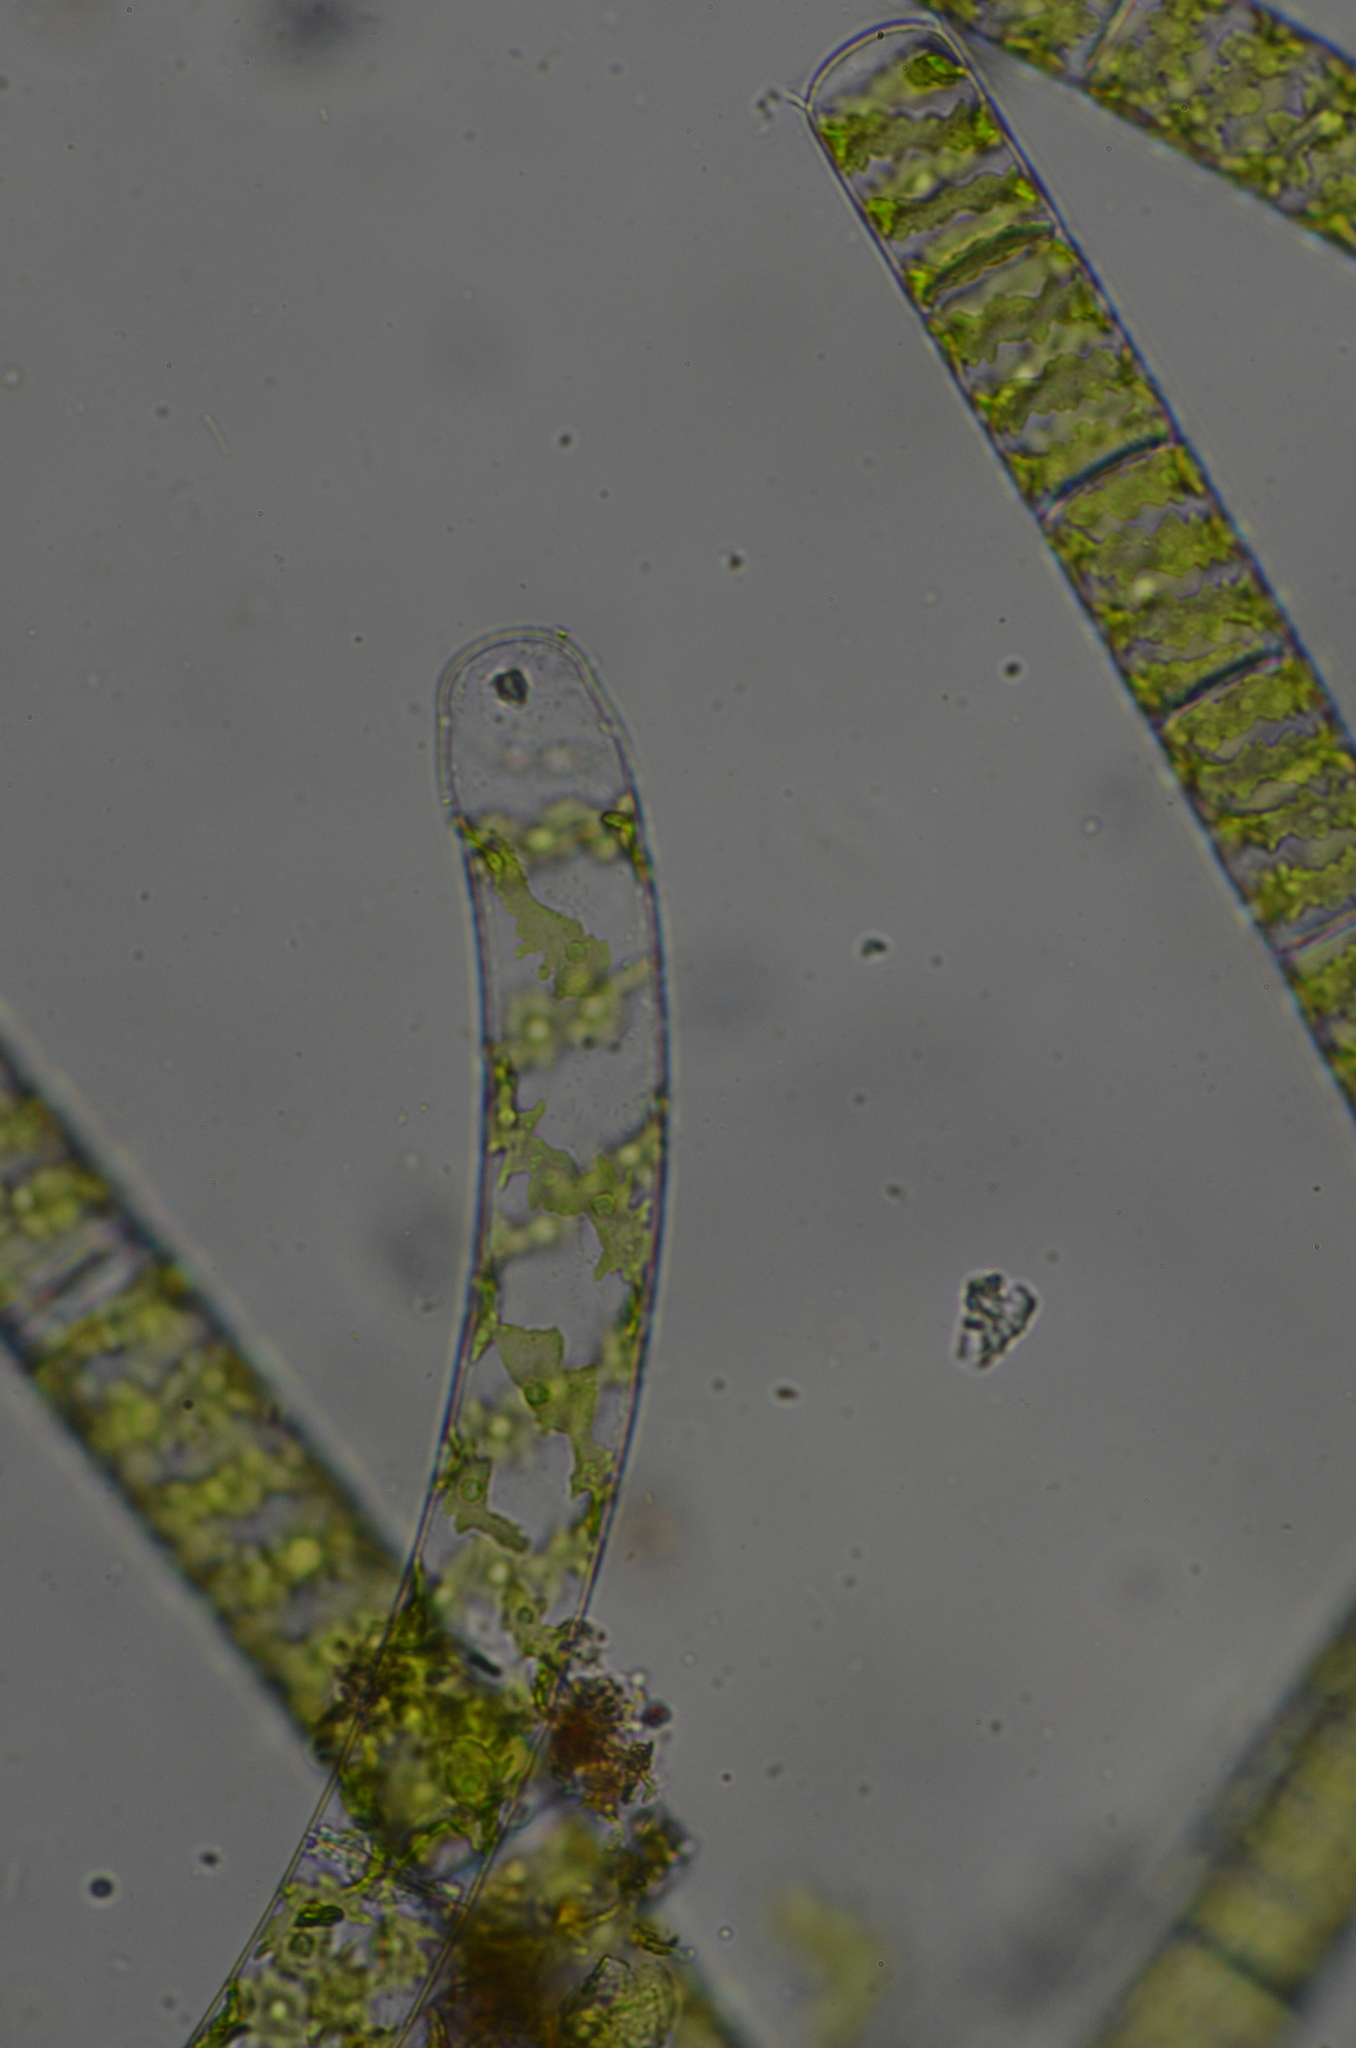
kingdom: Plantae
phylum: Charophyta
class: Zygnematophyceae
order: Zygnematales
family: Zygnemataceae
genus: Spirogyra
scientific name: Spirogyra
